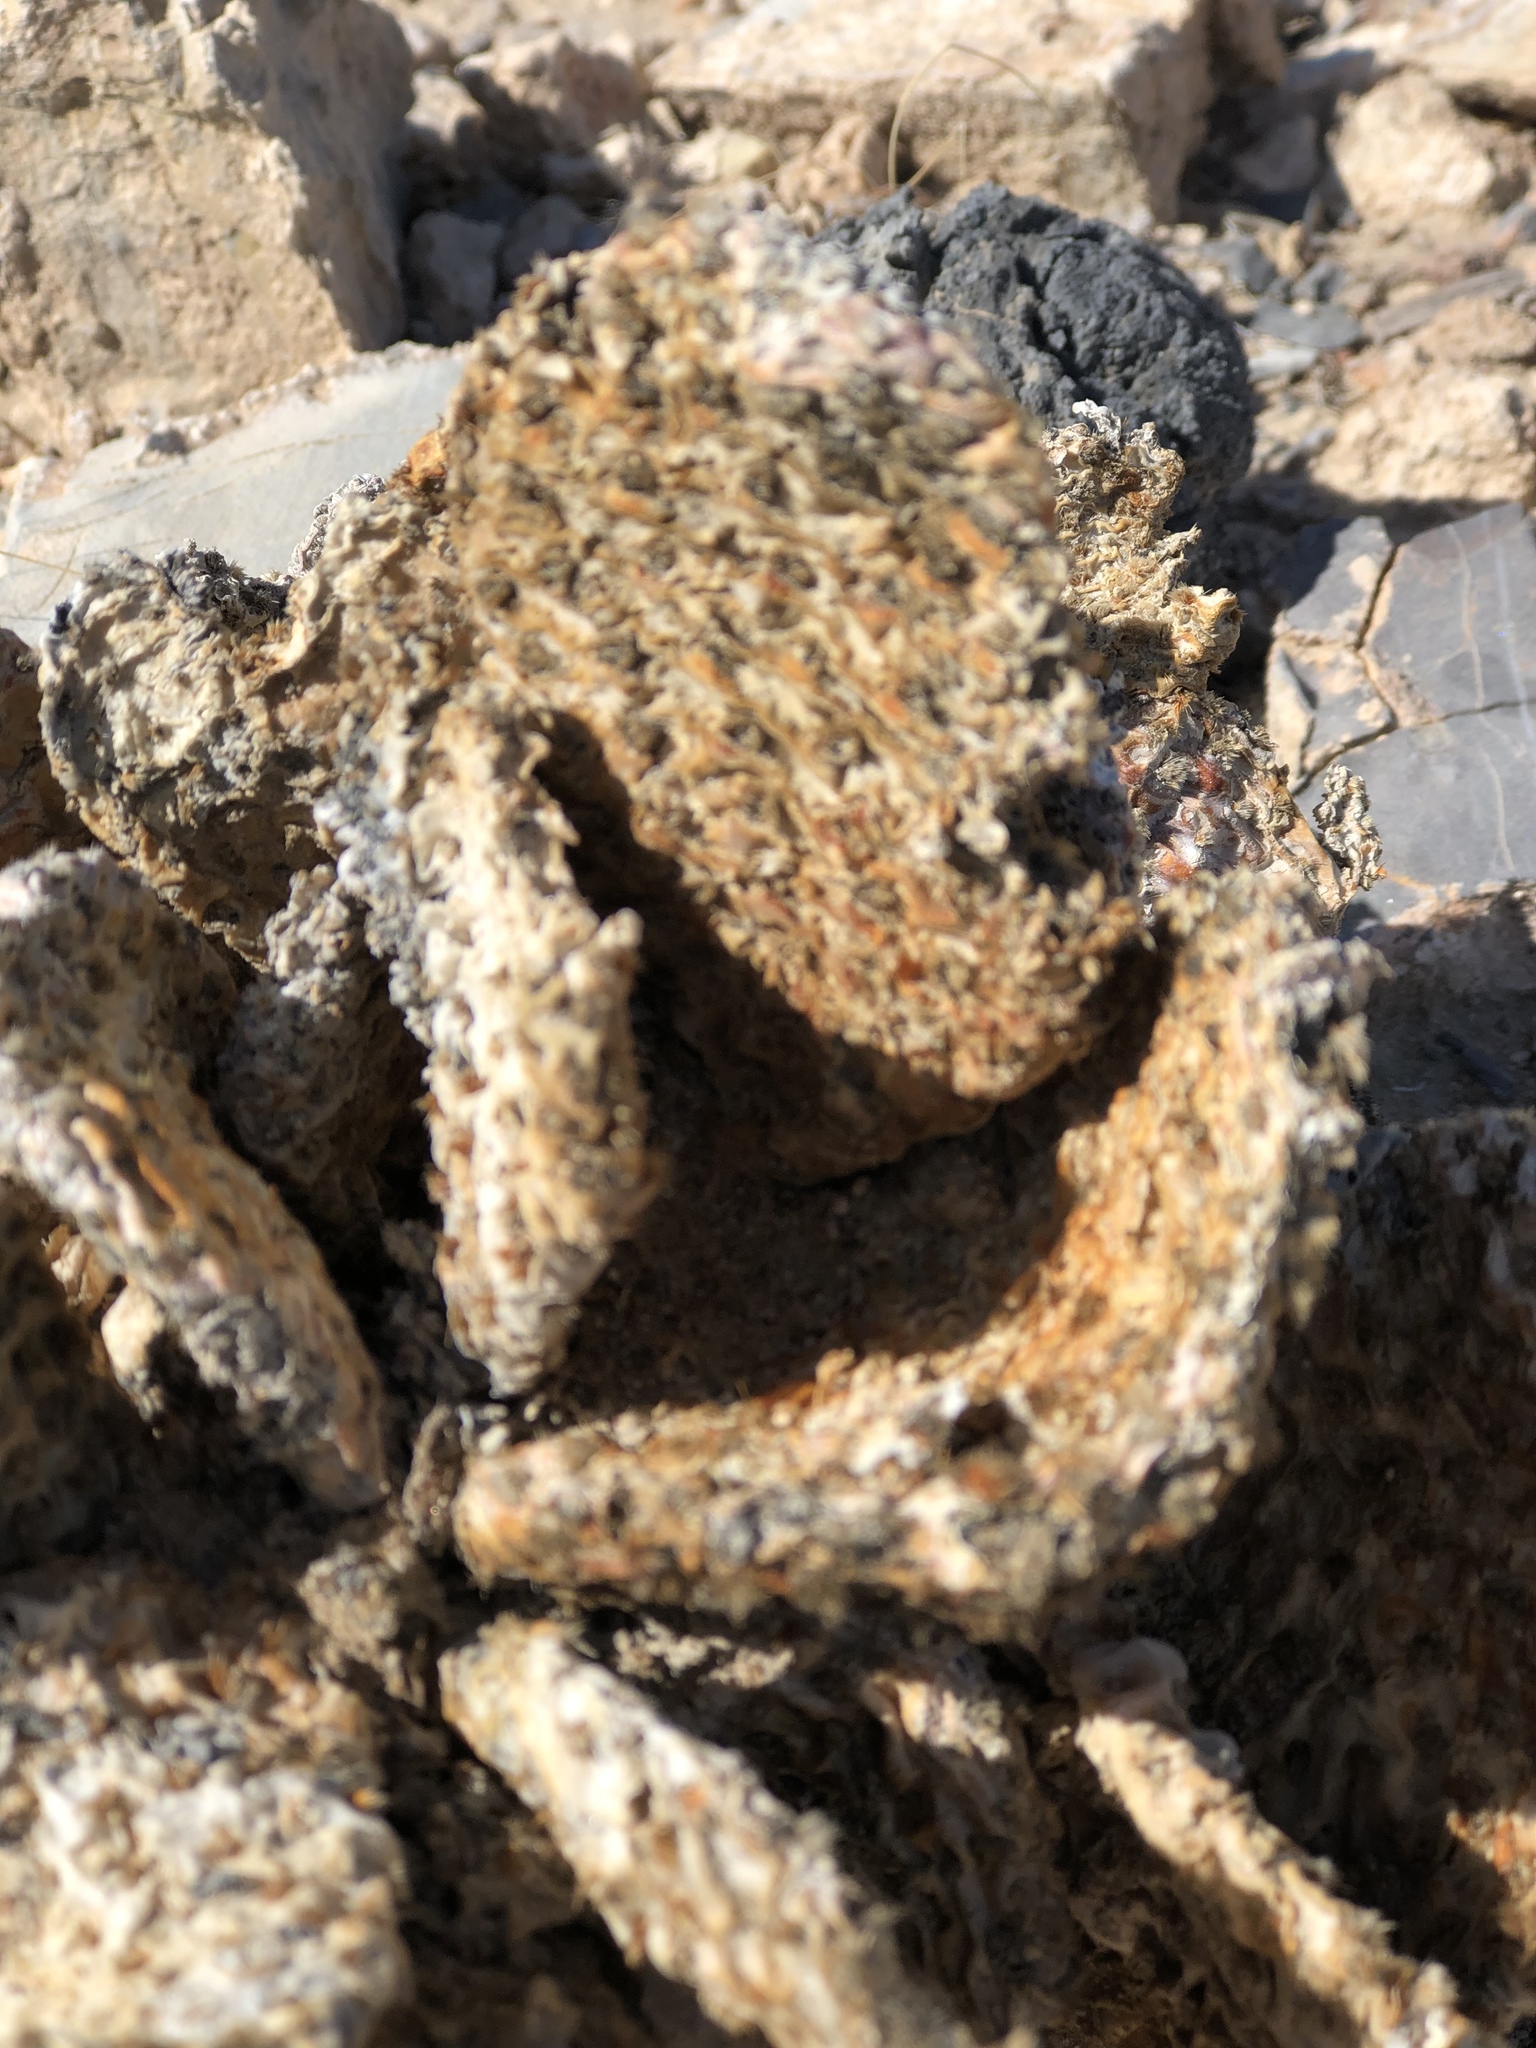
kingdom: Plantae
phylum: Tracheophyta
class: Magnoliopsida
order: Caryophyllales
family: Cactaceae
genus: Opuntia
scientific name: Opuntia basilaris
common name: Beavertail prickly-pear
